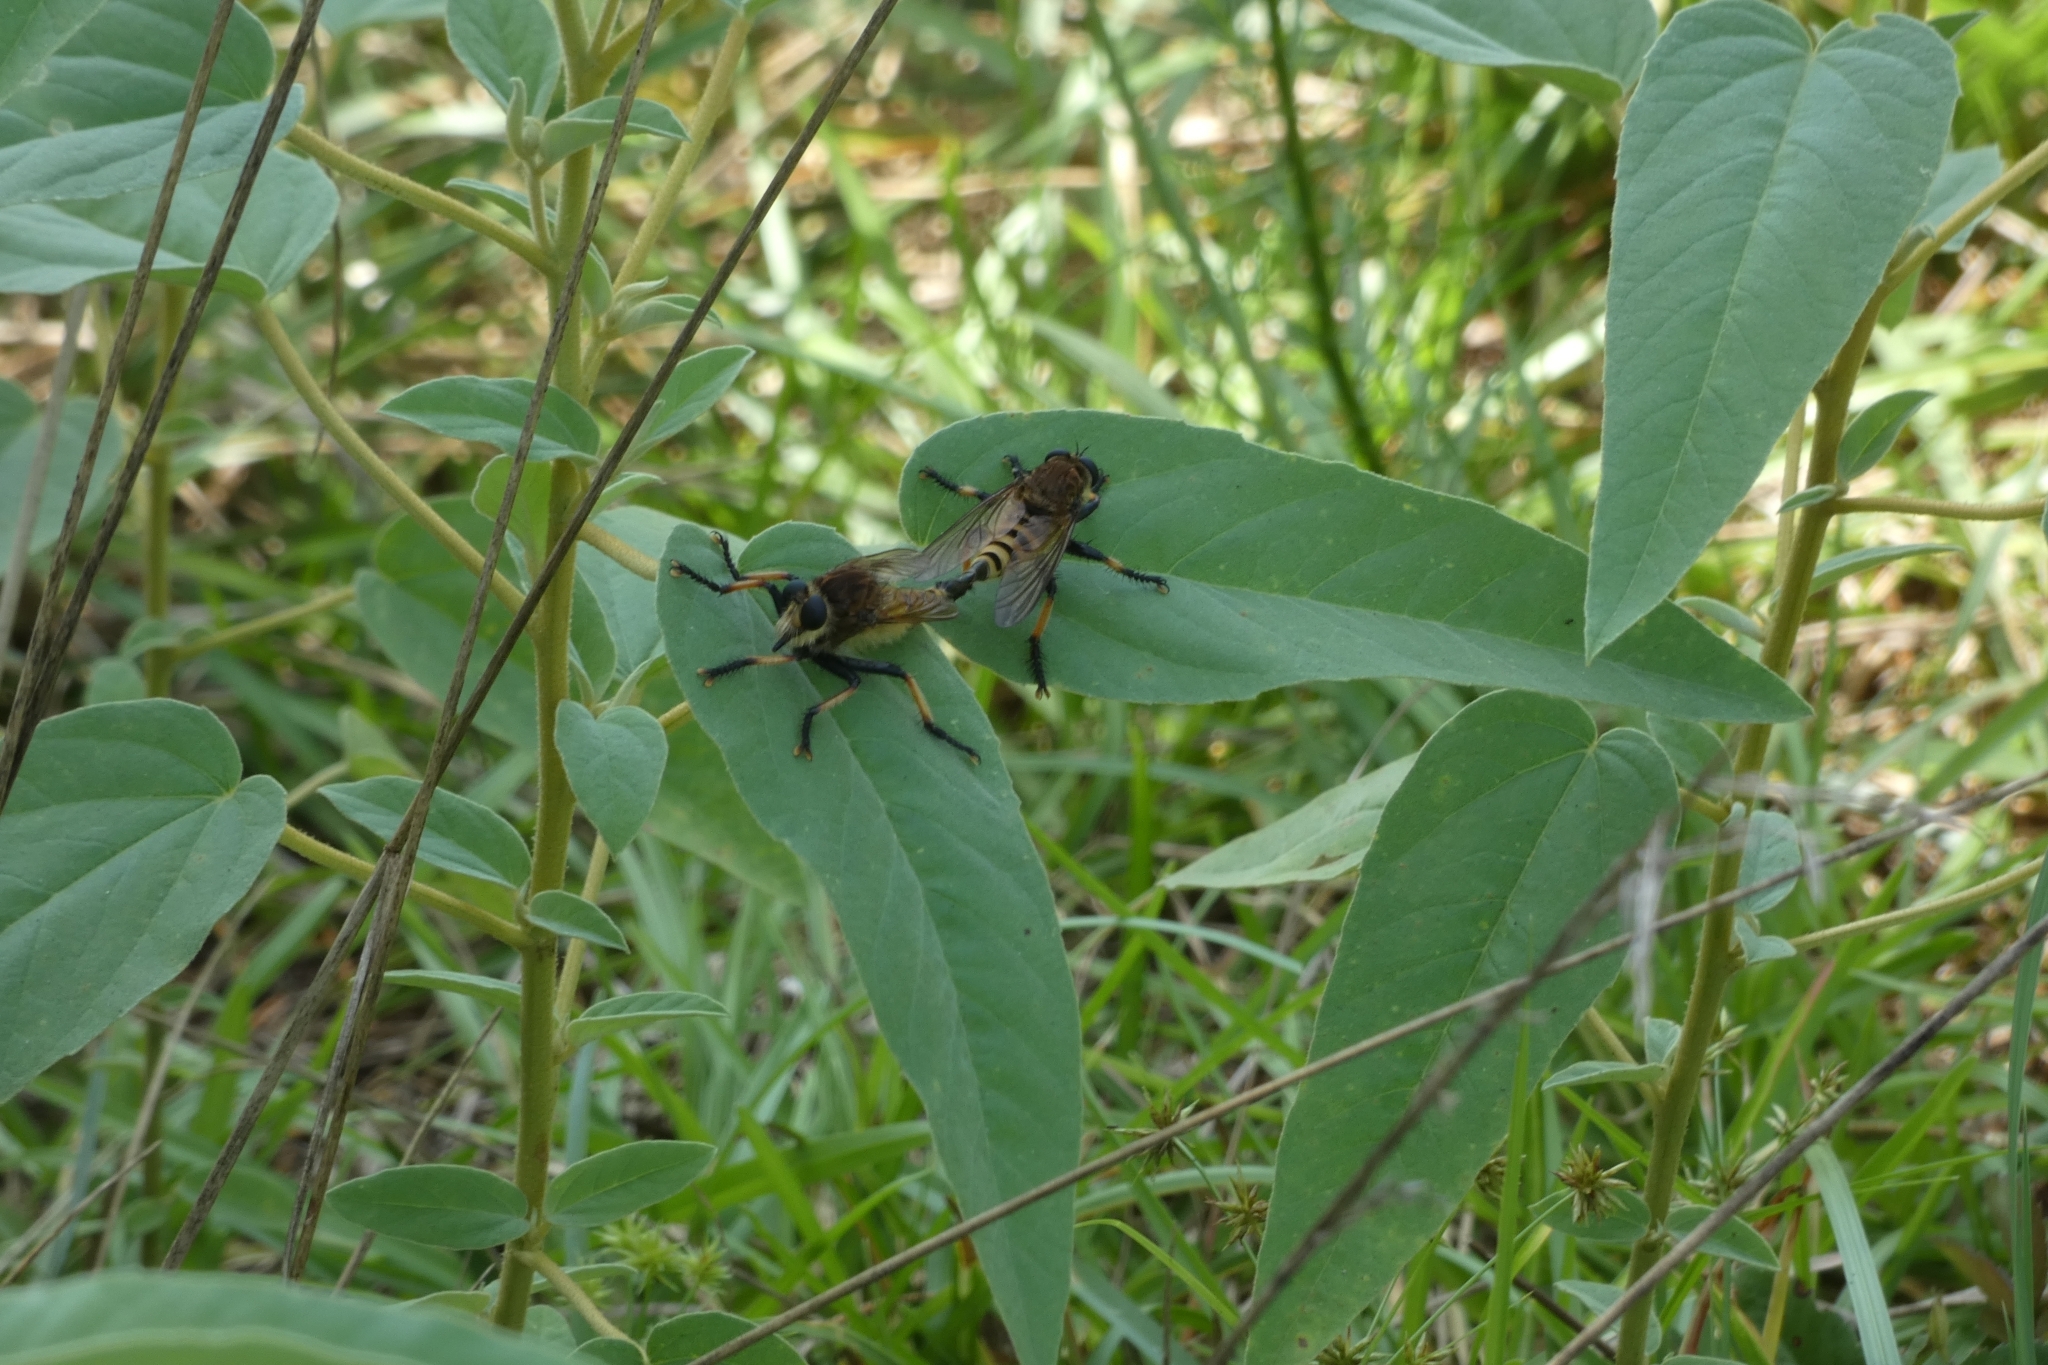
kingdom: Animalia
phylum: Arthropoda
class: Insecta
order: Diptera
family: Asilidae
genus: Promachus
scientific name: Promachus rufipes
